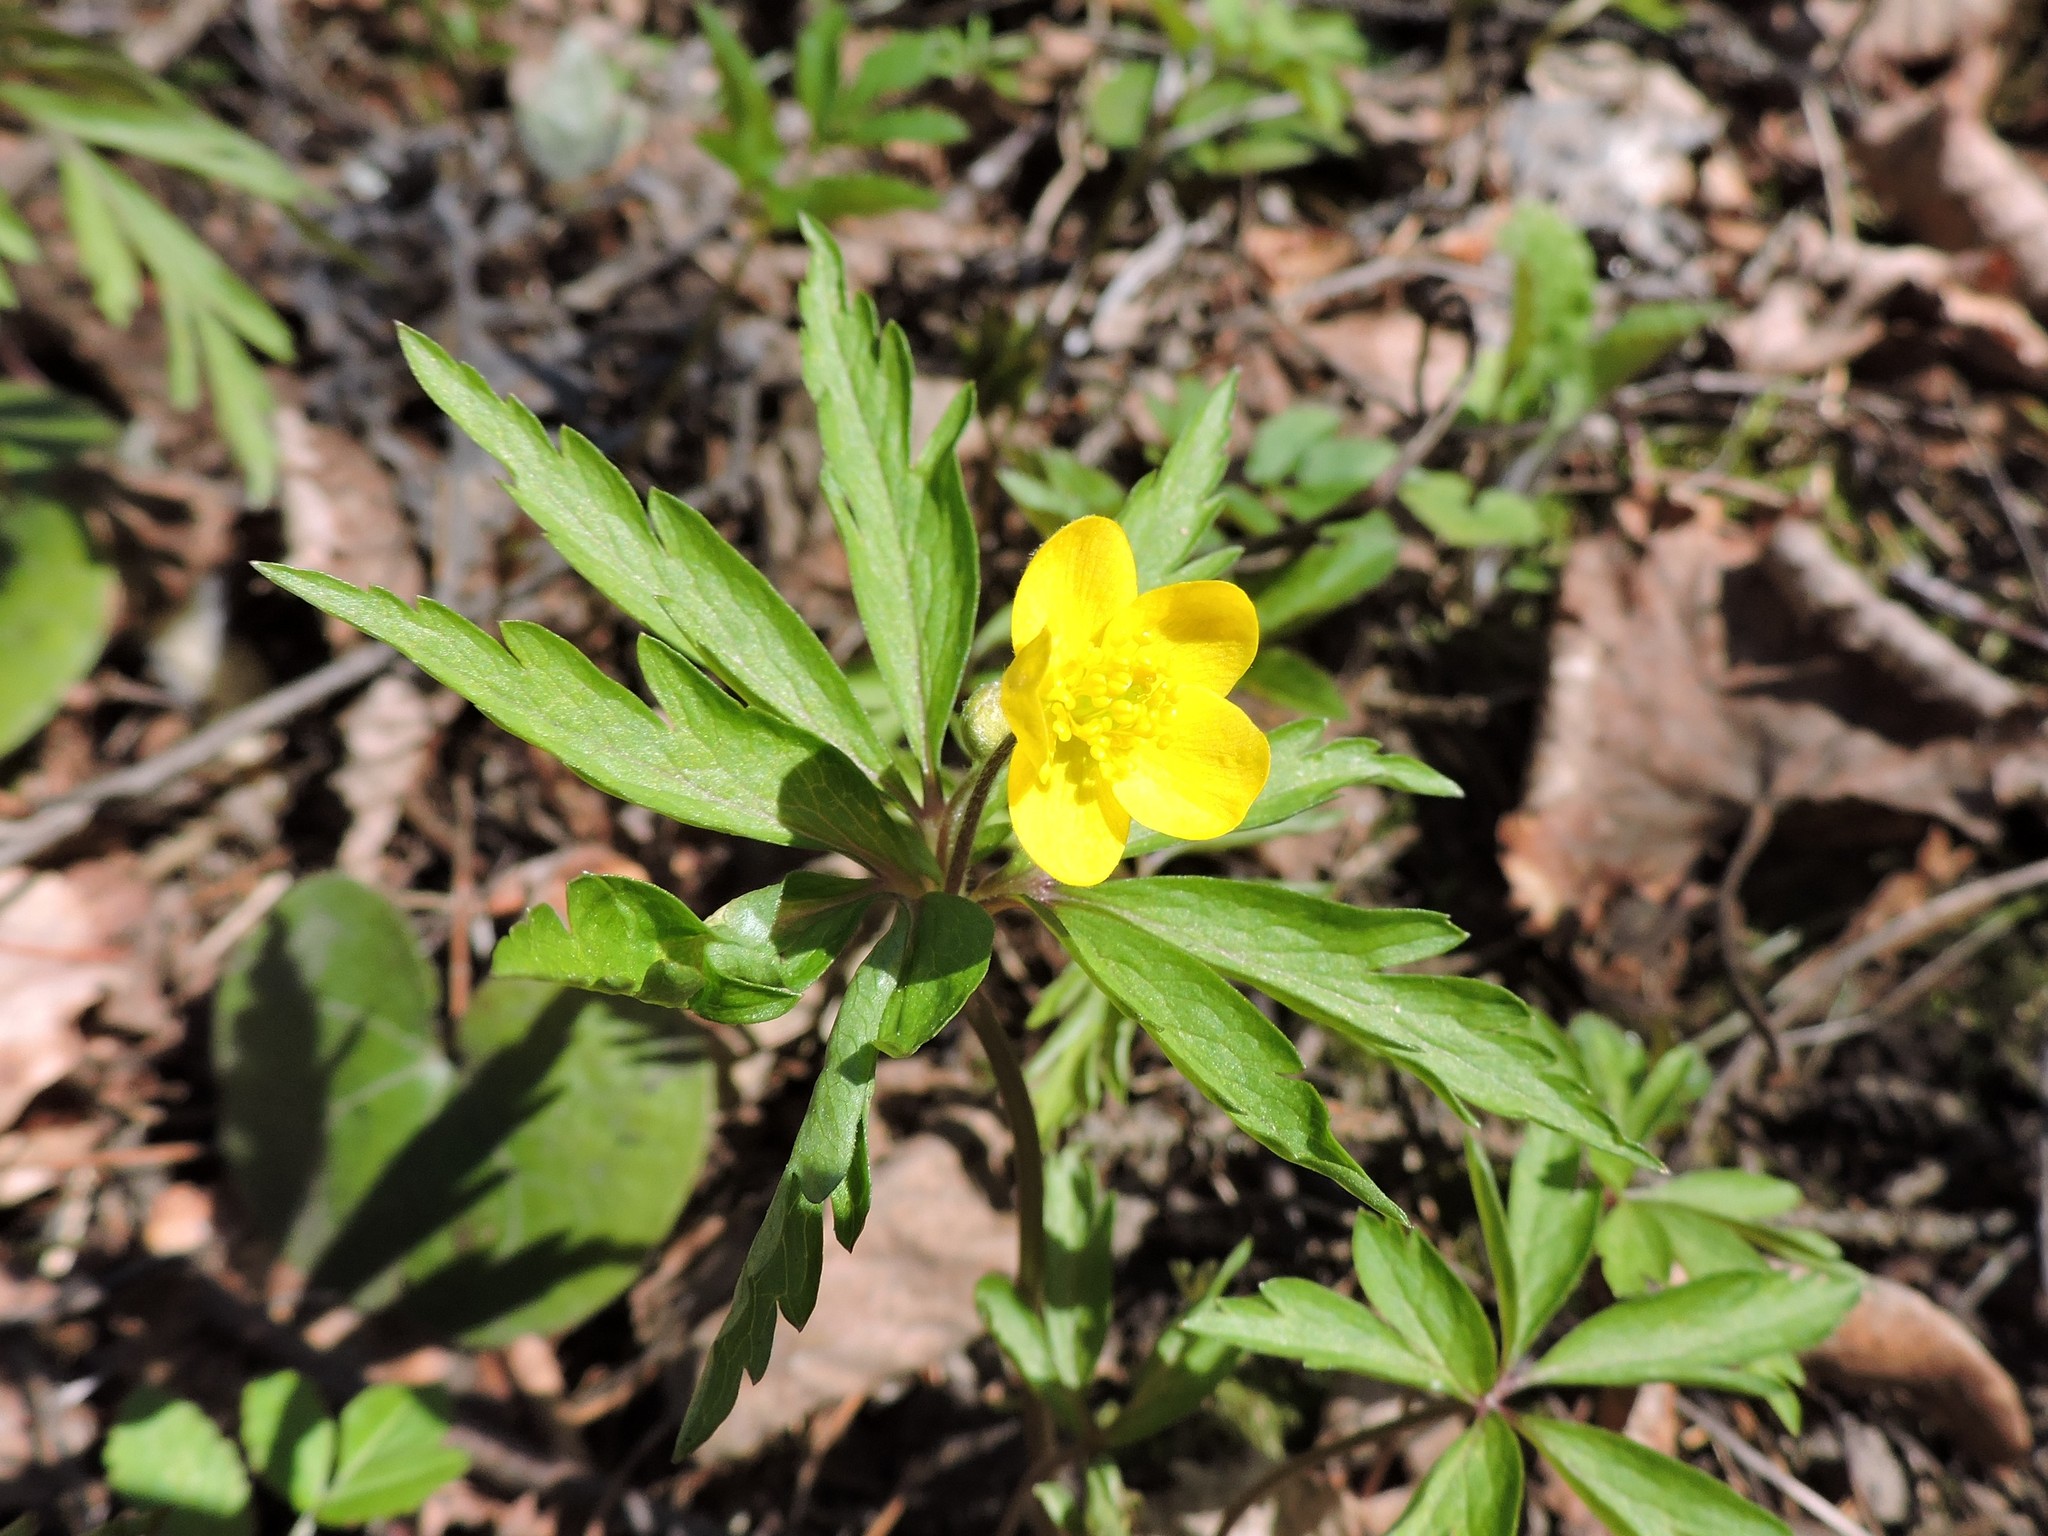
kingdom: Plantae
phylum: Tracheophyta
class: Magnoliopsida
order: Ranunculales
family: Ranunculaceae
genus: Anemone
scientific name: Anemone ranunculoides
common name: Yellow anemone
